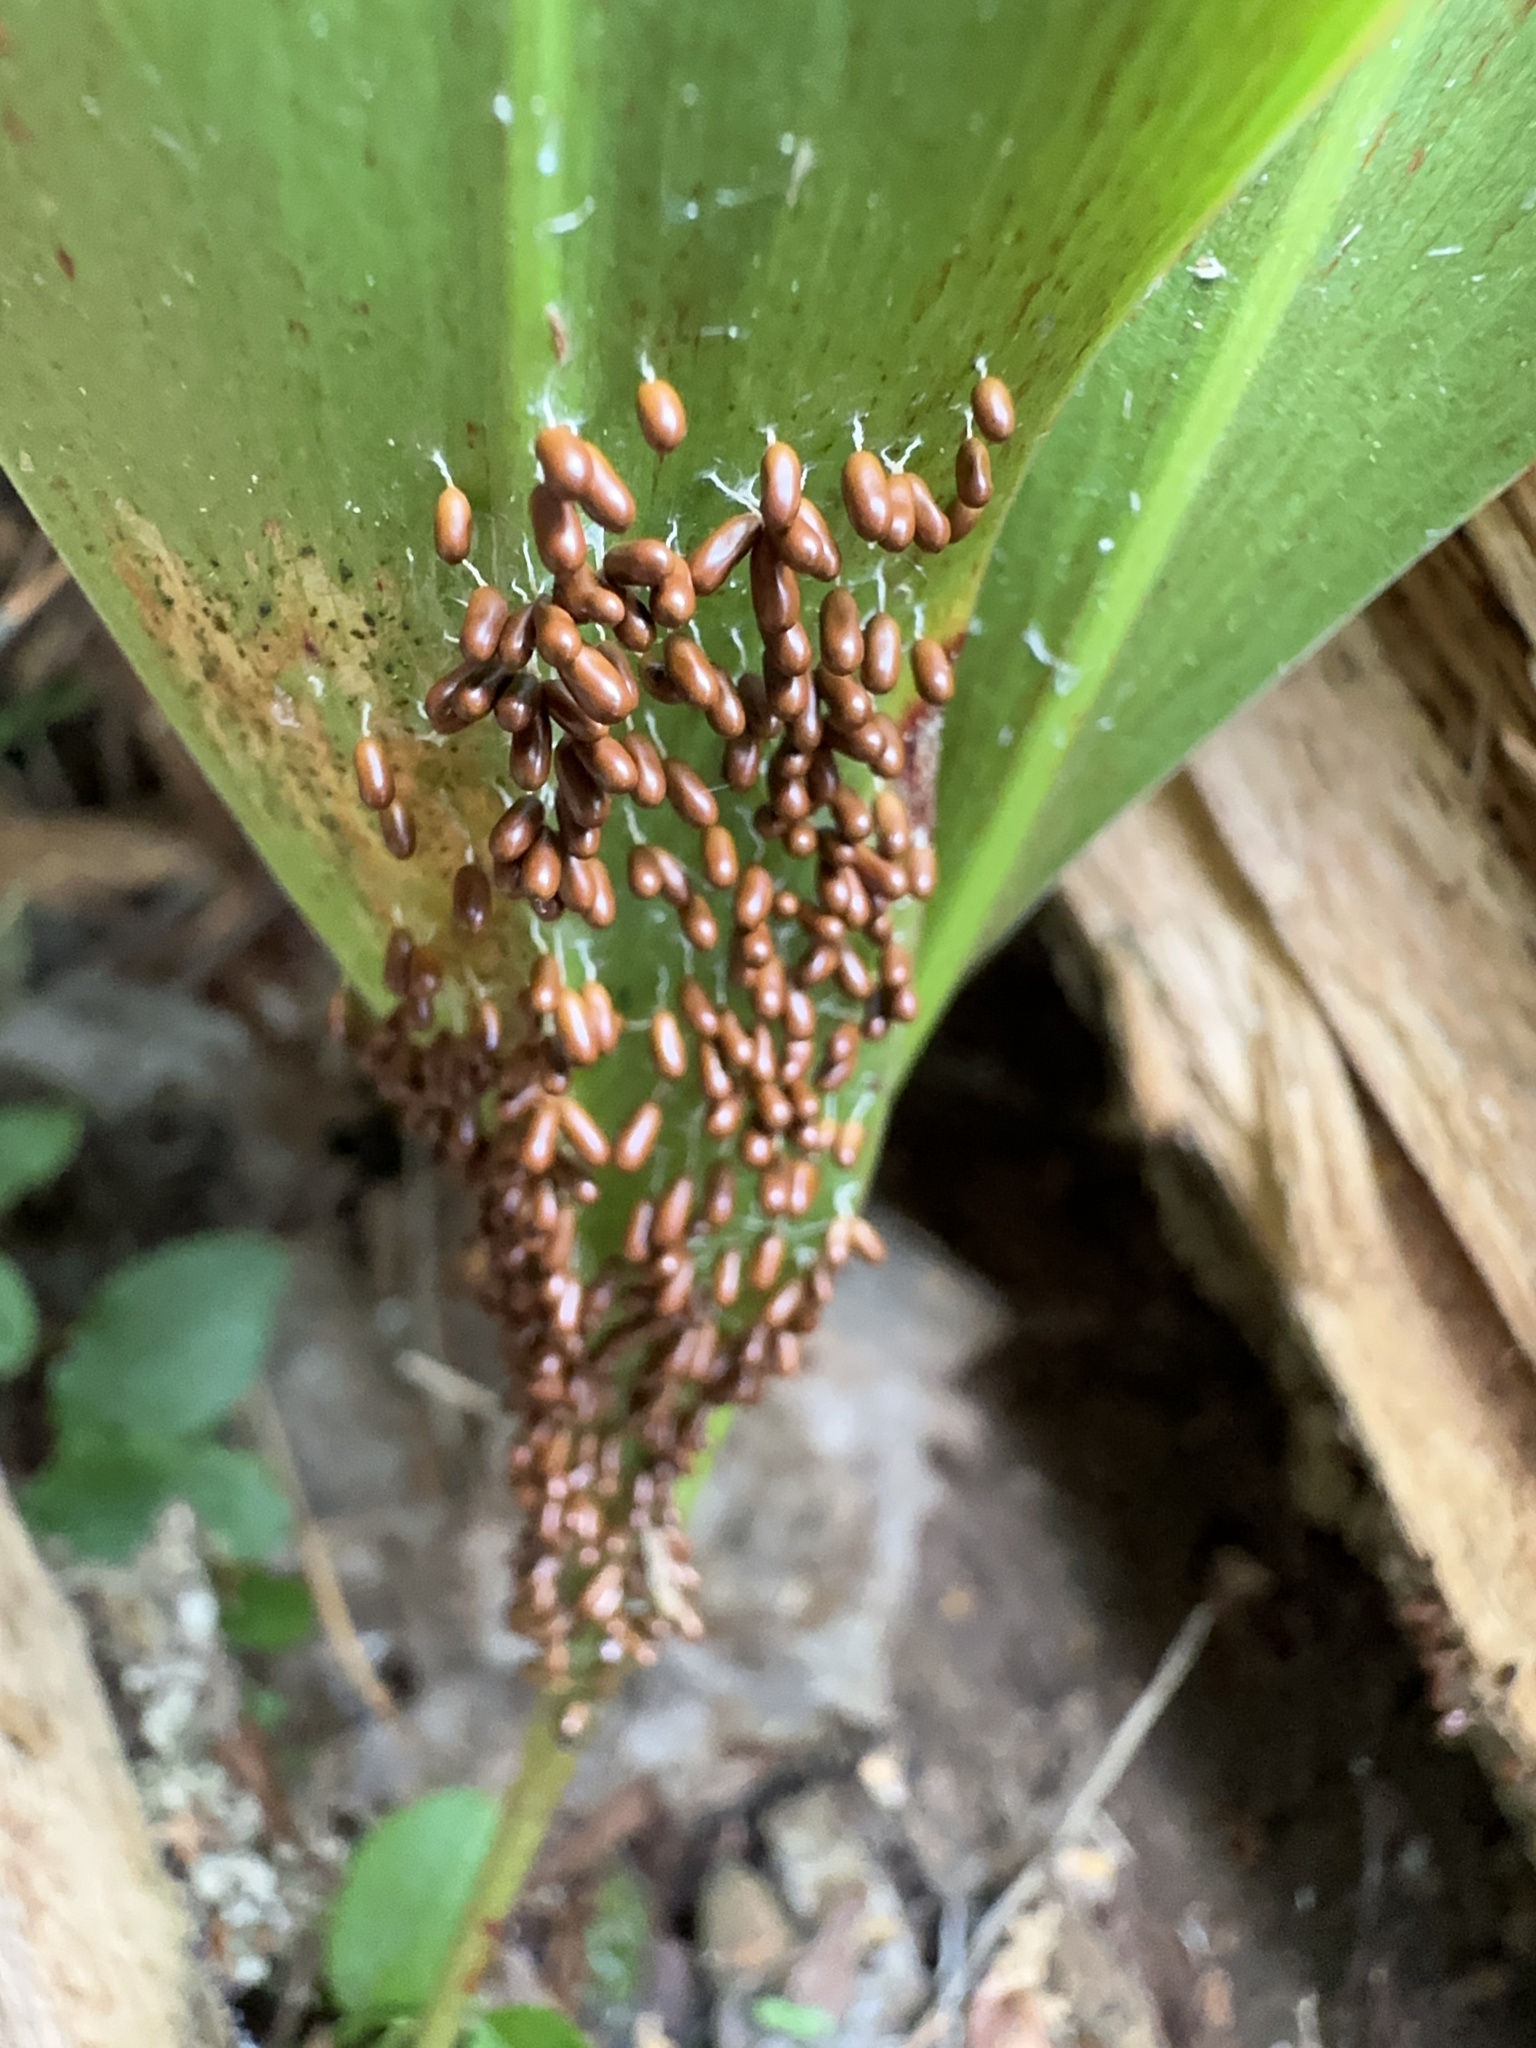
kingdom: Protozoa
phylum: Mycetozoa
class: Myxomycetes
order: Physarales
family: Physaraceae
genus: Leocarpus
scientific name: Leocarpus fragilis
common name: Insect-egg slime
